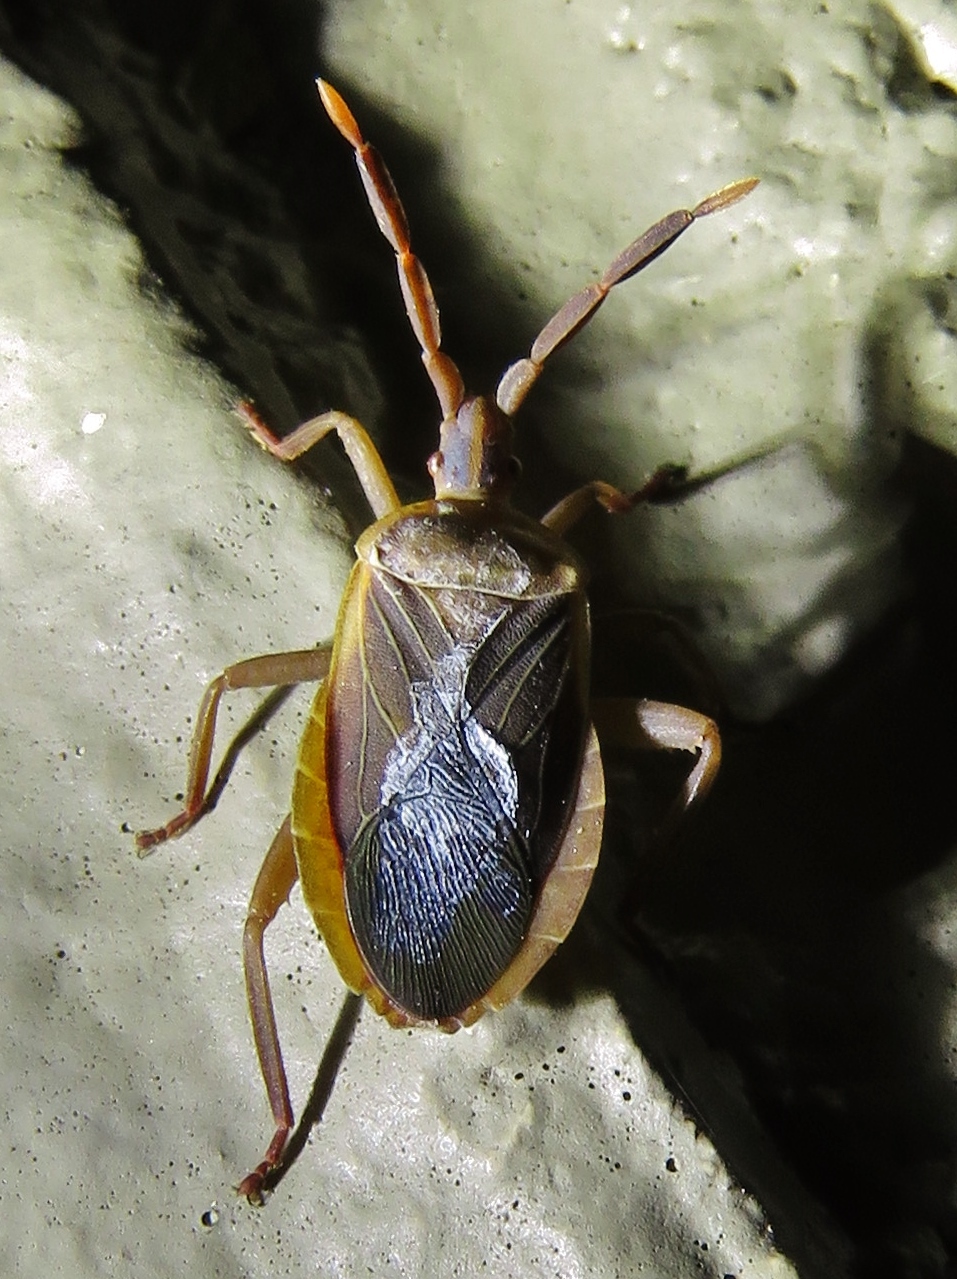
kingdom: Animalia
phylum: Arthropoda
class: Insecta
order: Hemiptera
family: Coreidae
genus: Chelinidea
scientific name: Chelinidea vittiger
